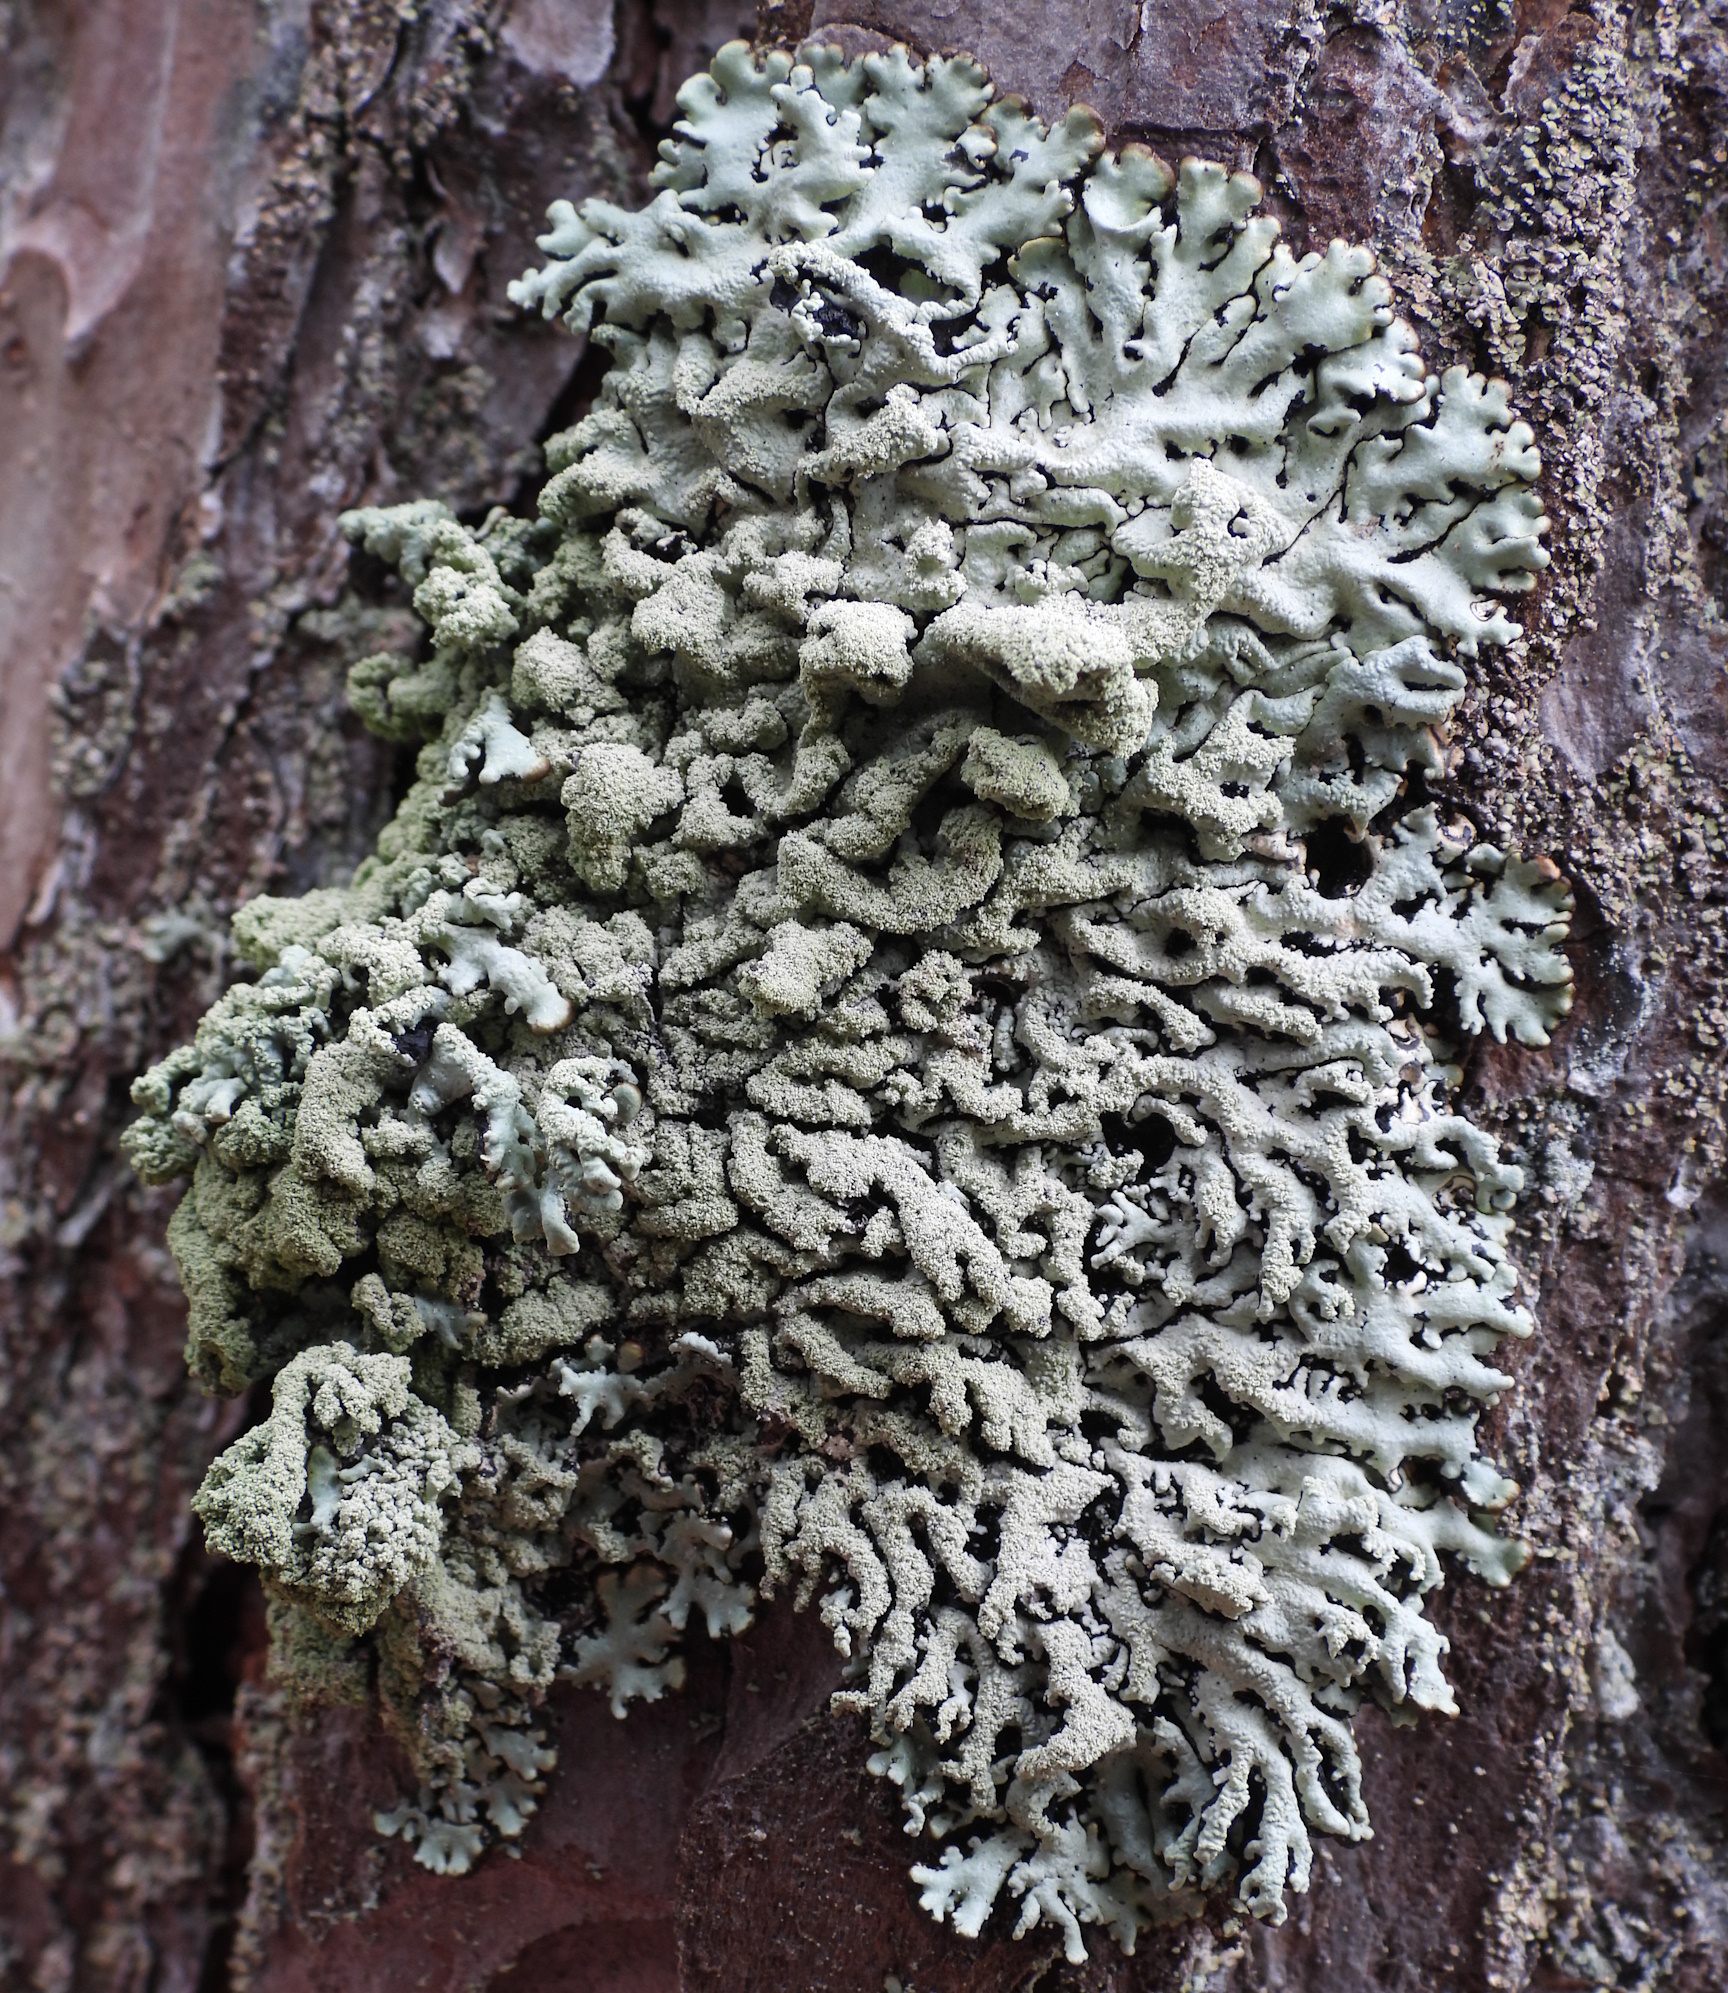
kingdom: Fungi
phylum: Ascomycota
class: Lecanoromycetes
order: Lecanorales
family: Parmeliaceae
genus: Hypogymnia
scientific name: Hypogymnia farinacea
